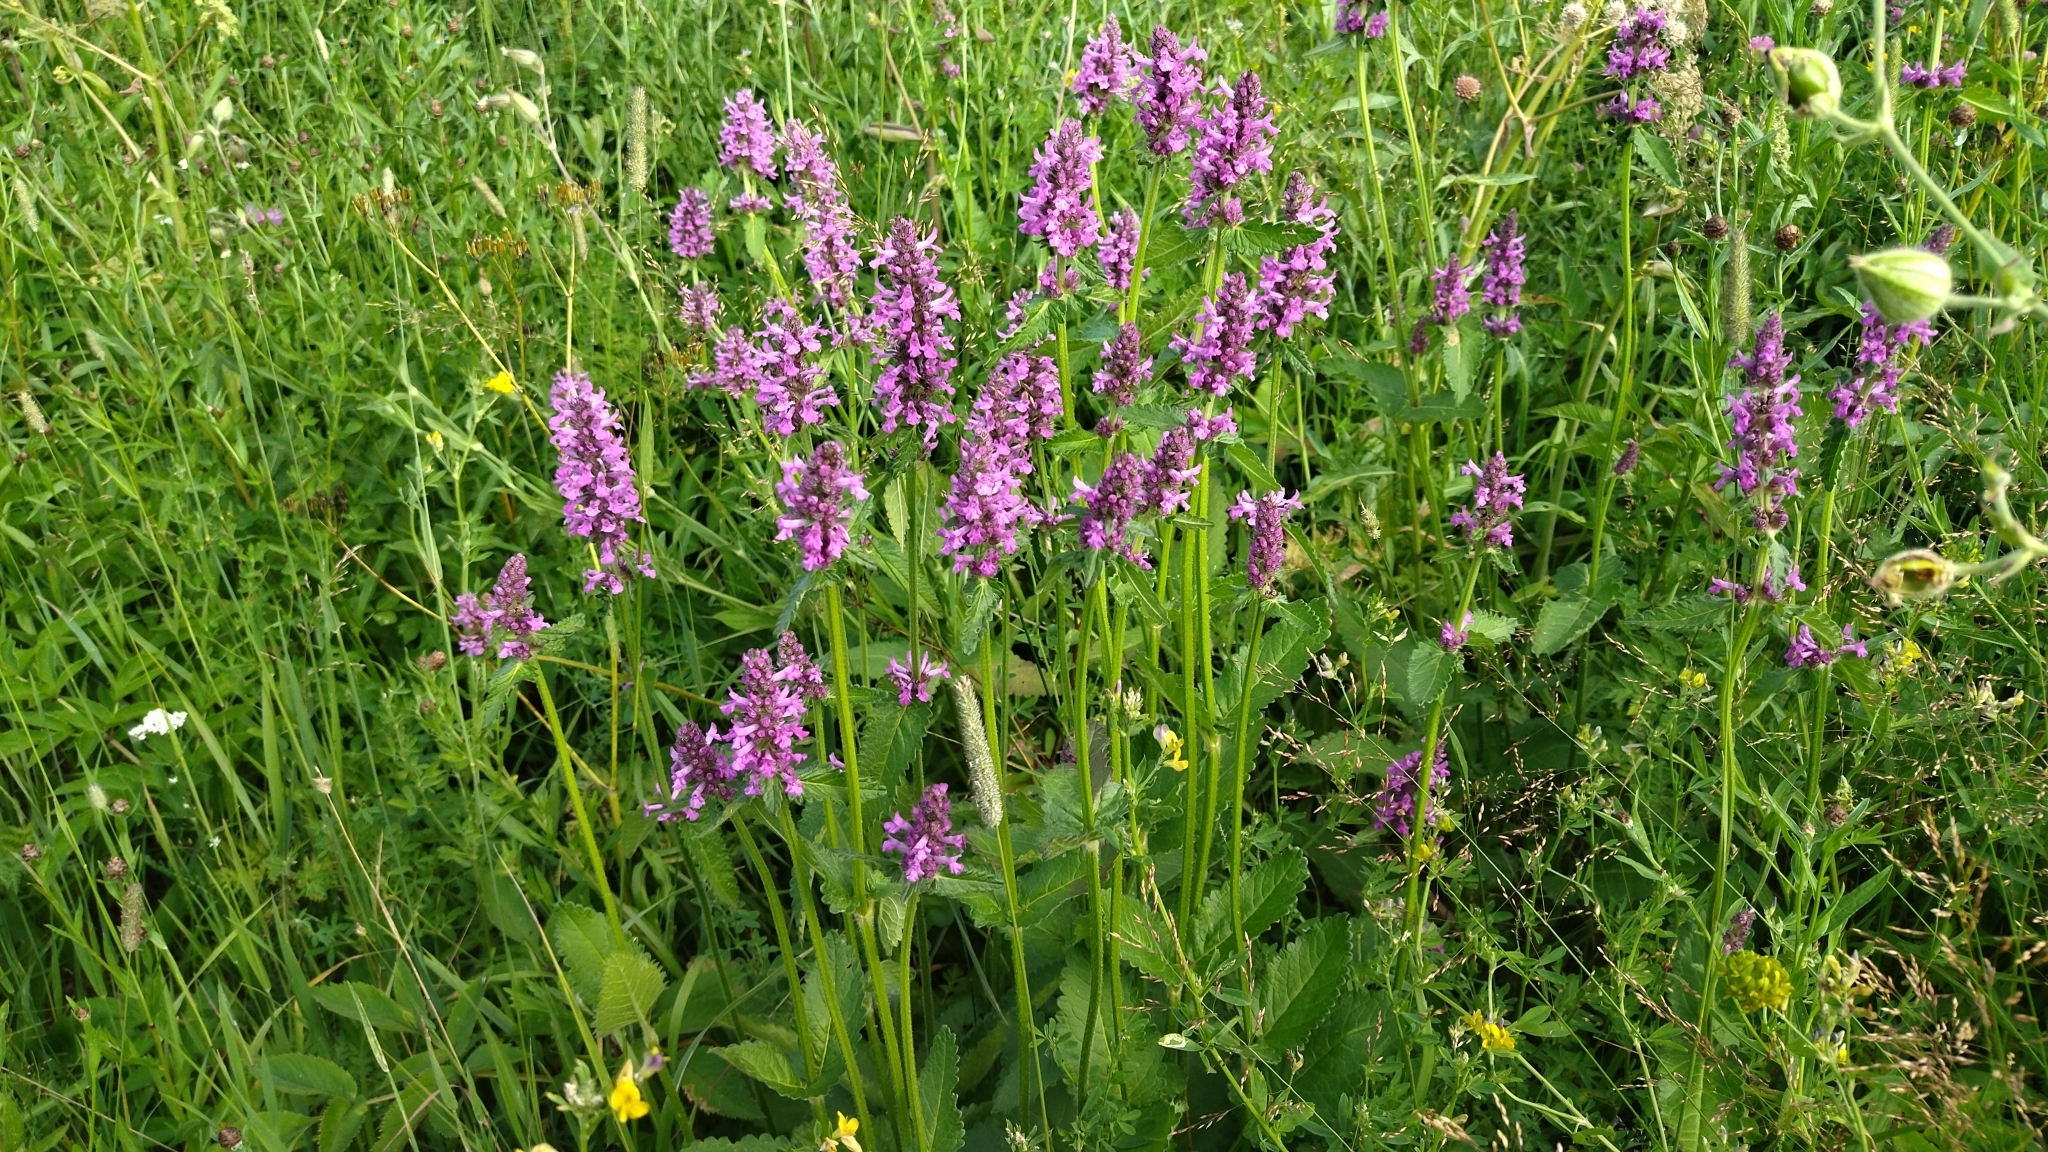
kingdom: Plantae
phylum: Tracheophyta
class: Magnoliopsida
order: Lamiales
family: Lamiaceae
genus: Betonica
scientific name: Betonica officinalis
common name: Bishop's-wort
